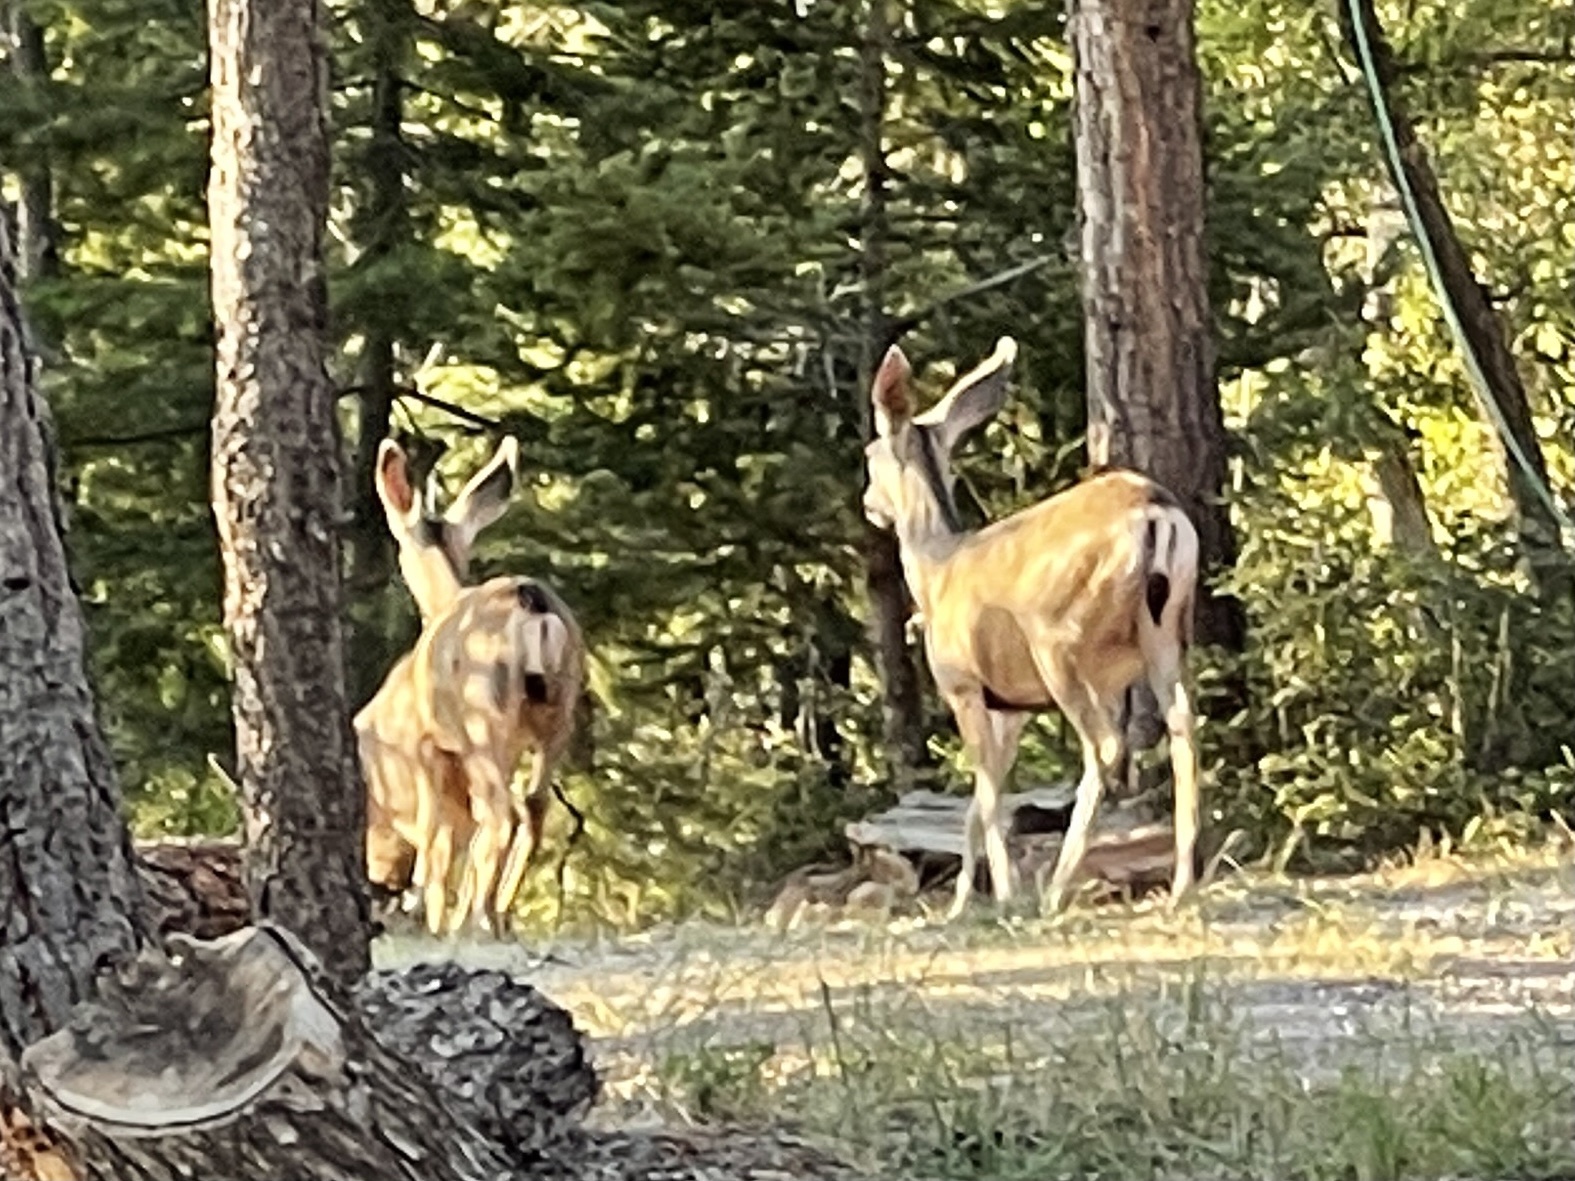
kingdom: Animalia
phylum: Chordata
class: Mammalia
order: Artiodactyla
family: Cervidae
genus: Odocoileus
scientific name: Odocoileus hemionus
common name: Mule deer
